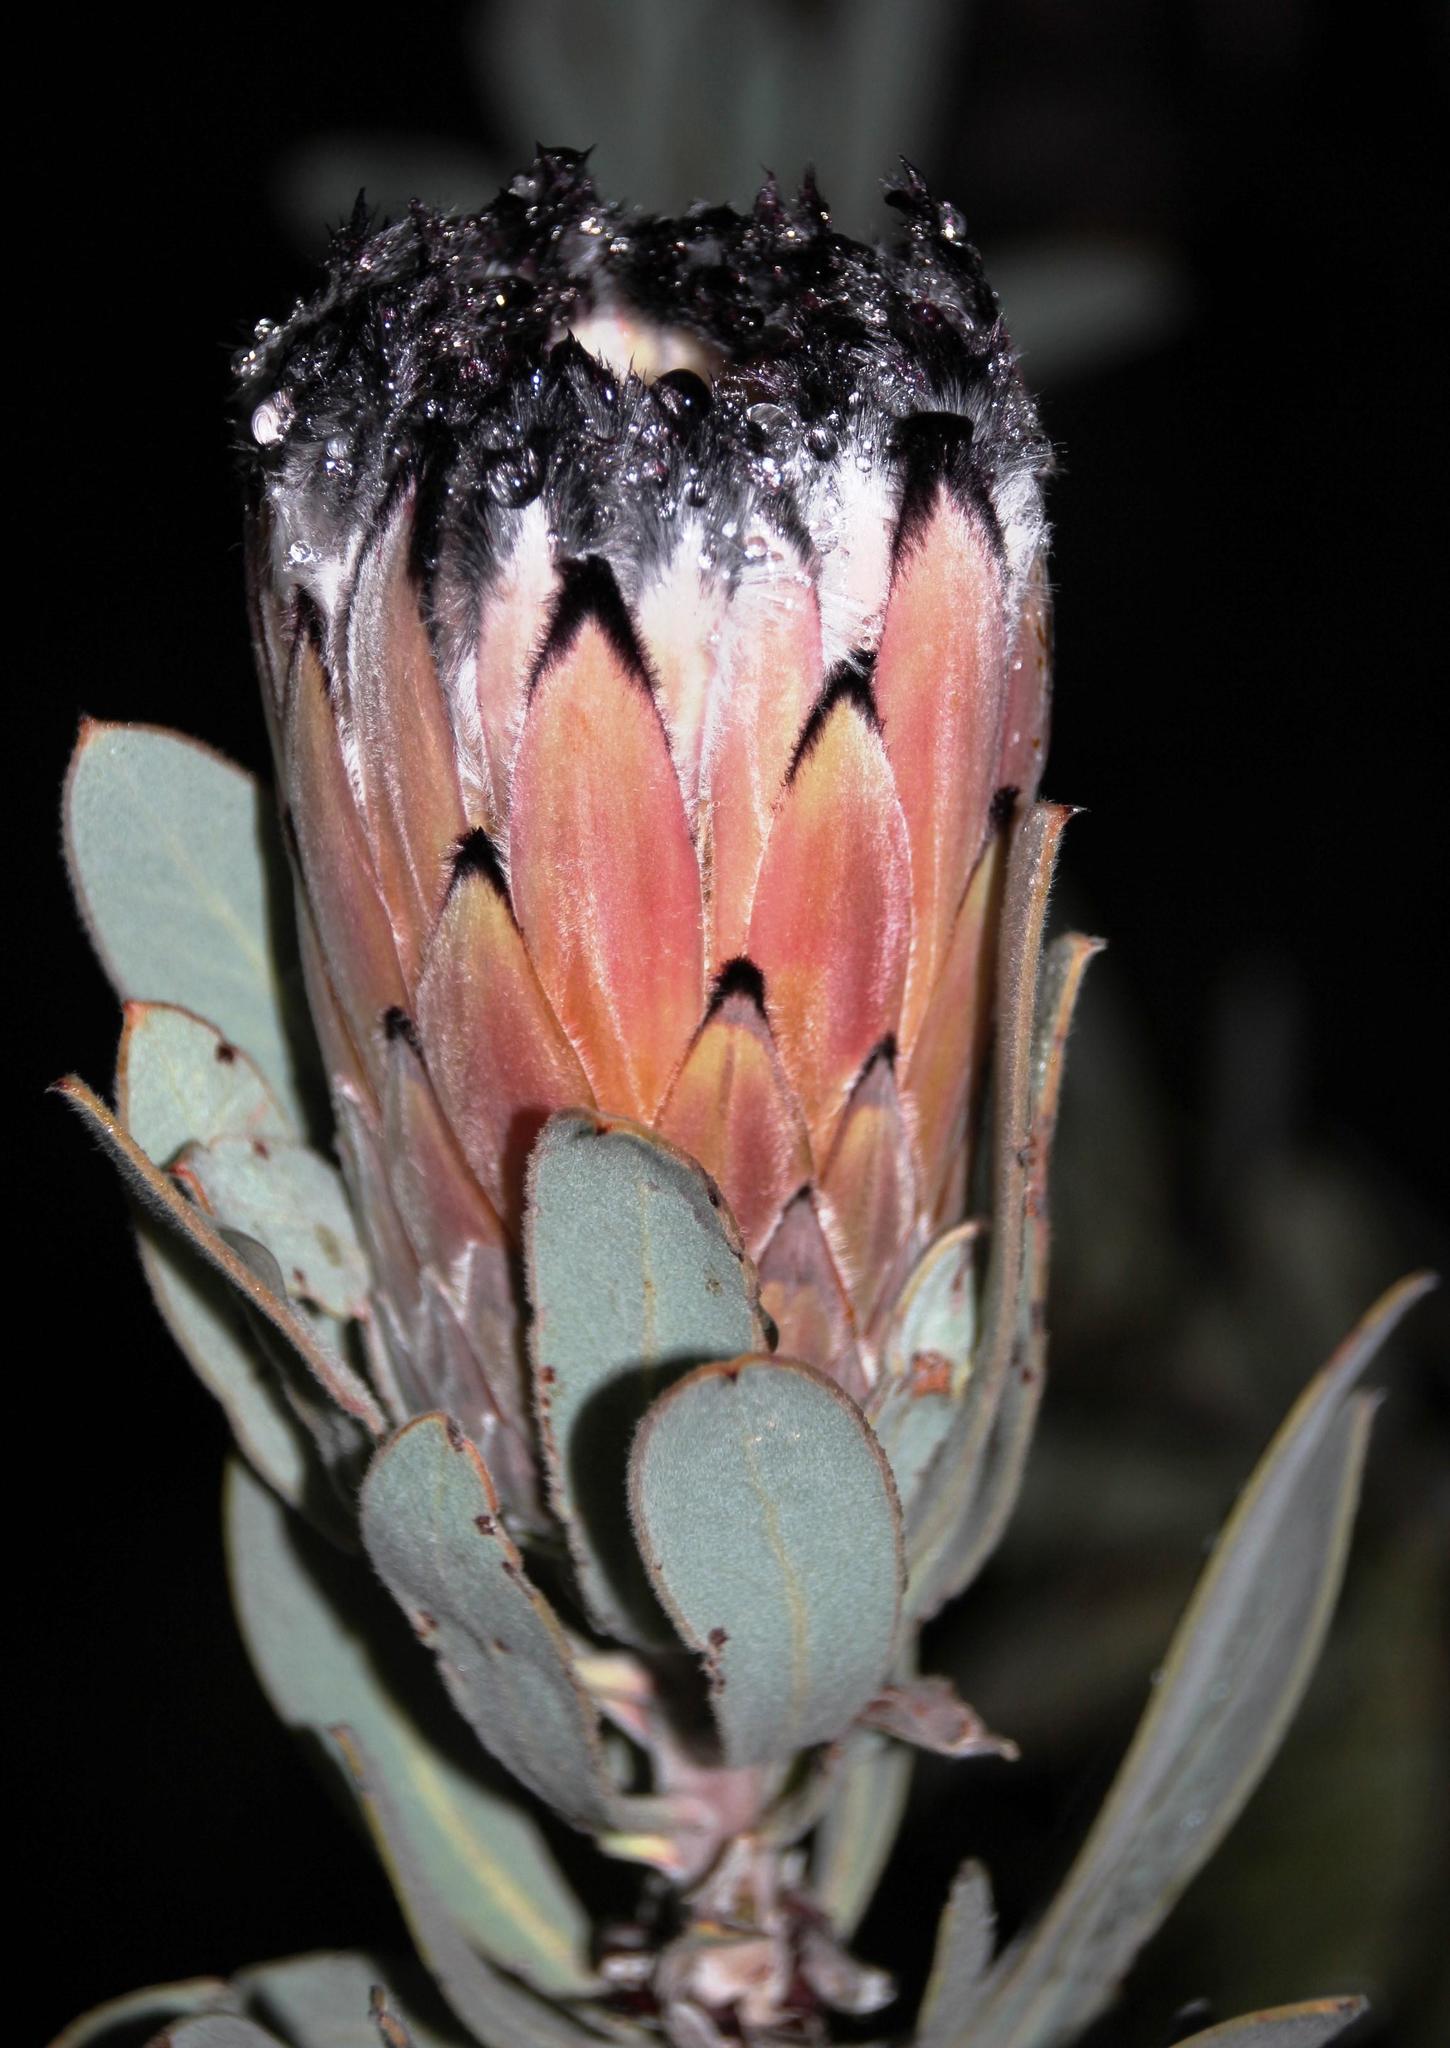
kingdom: Plantae
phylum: Tracheophyta
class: Magnoliopsida
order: Proteales
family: Proteaceae
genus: Protea
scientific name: Protea laurifolia
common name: Grey-leaf sugarbsh
